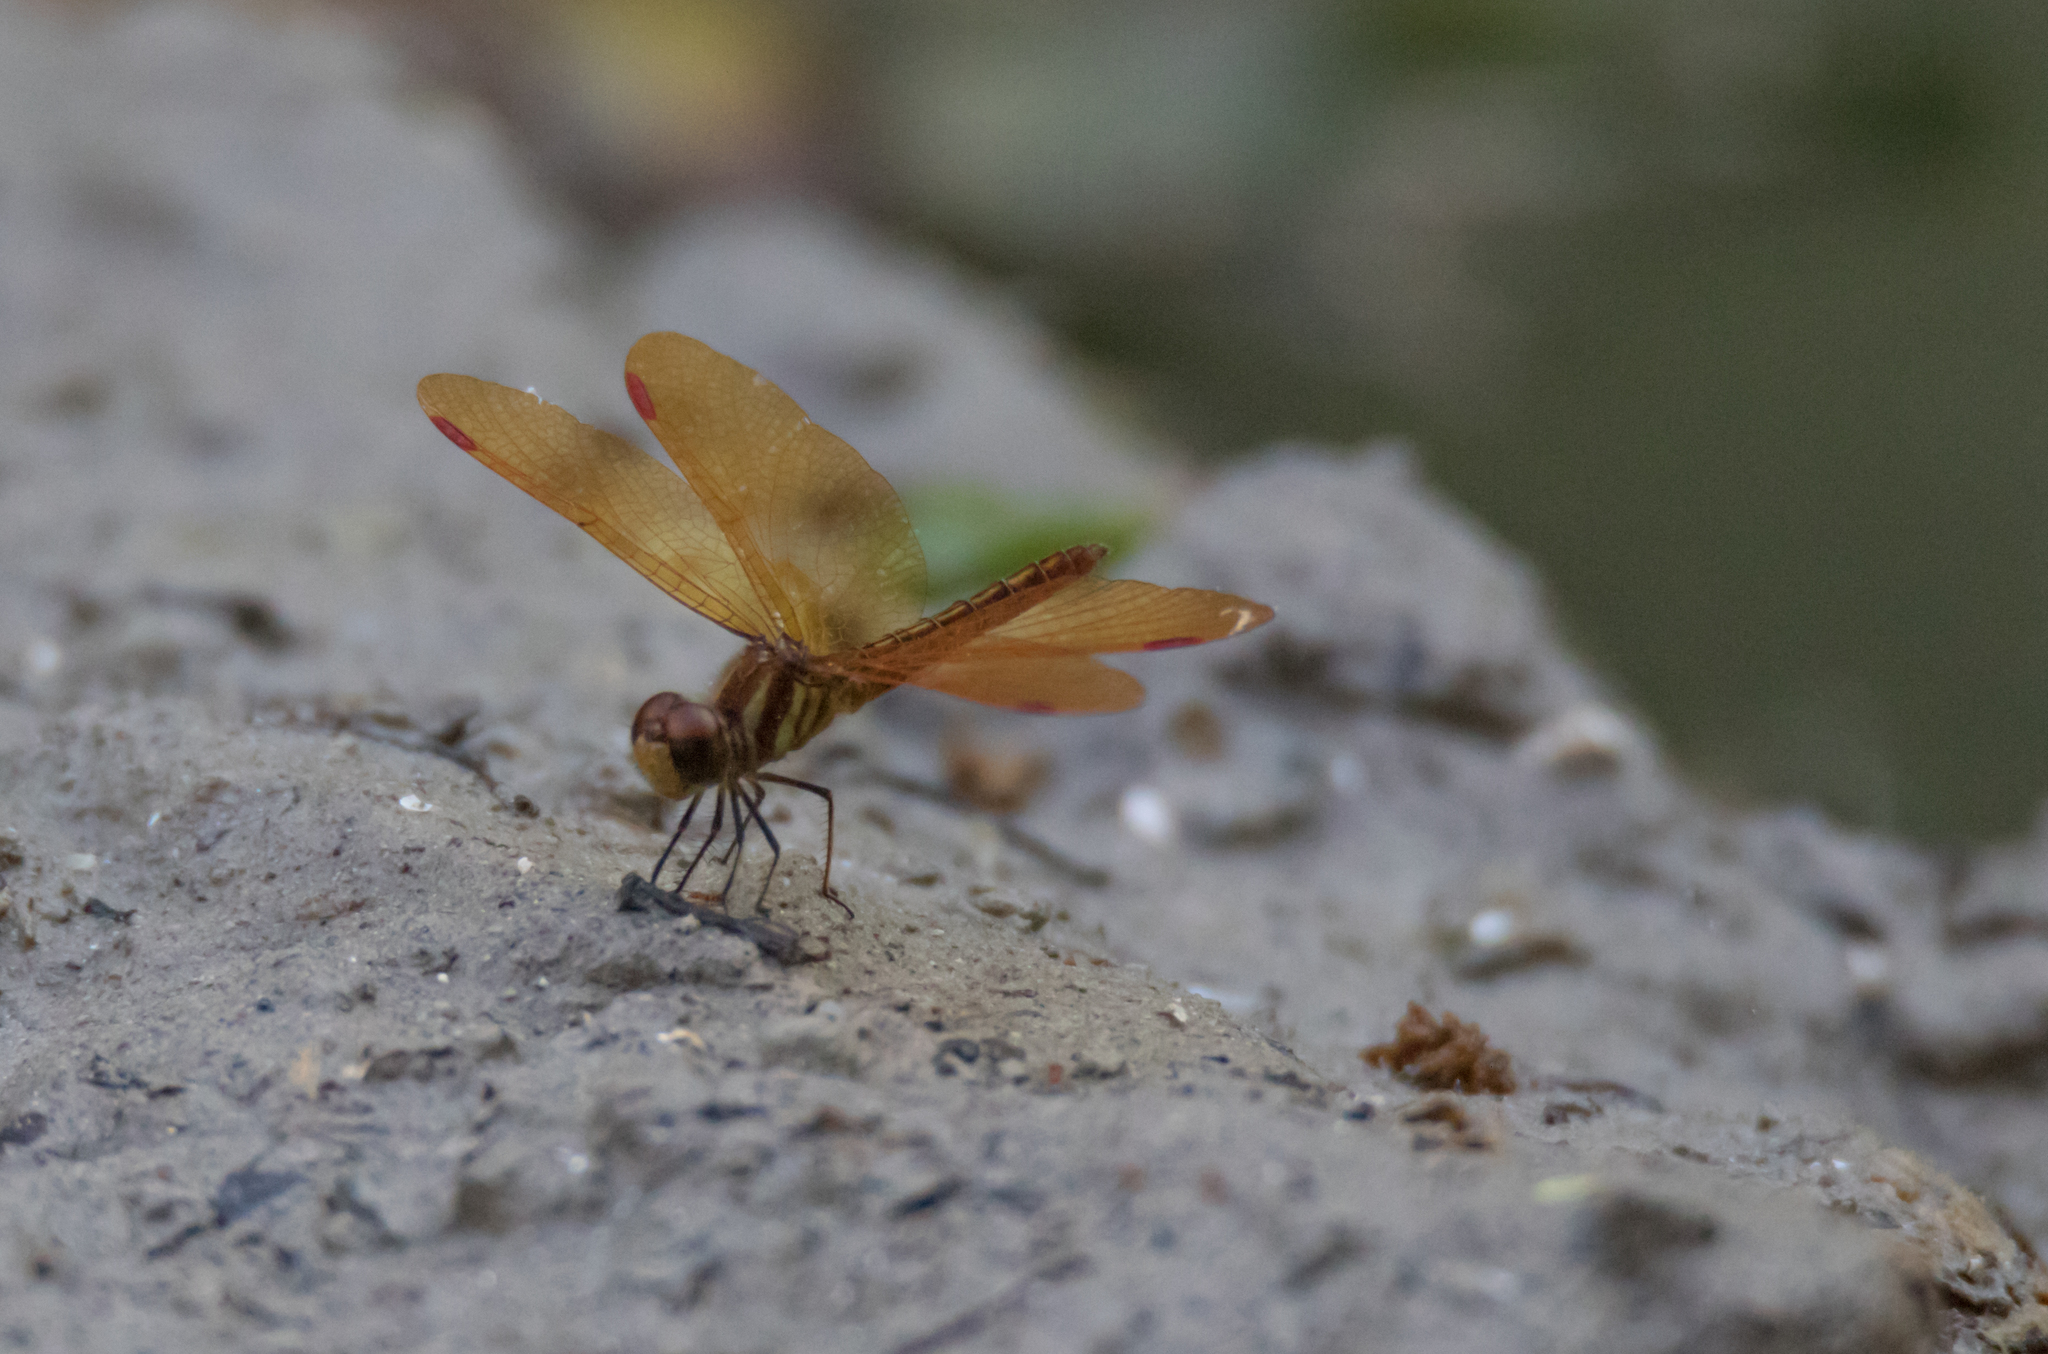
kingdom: Animalia
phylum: Arthropoda
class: Insecta
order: Odonata
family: Libellulidae
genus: Perithemis
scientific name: Perithemis domitia
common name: Slough amberwing
